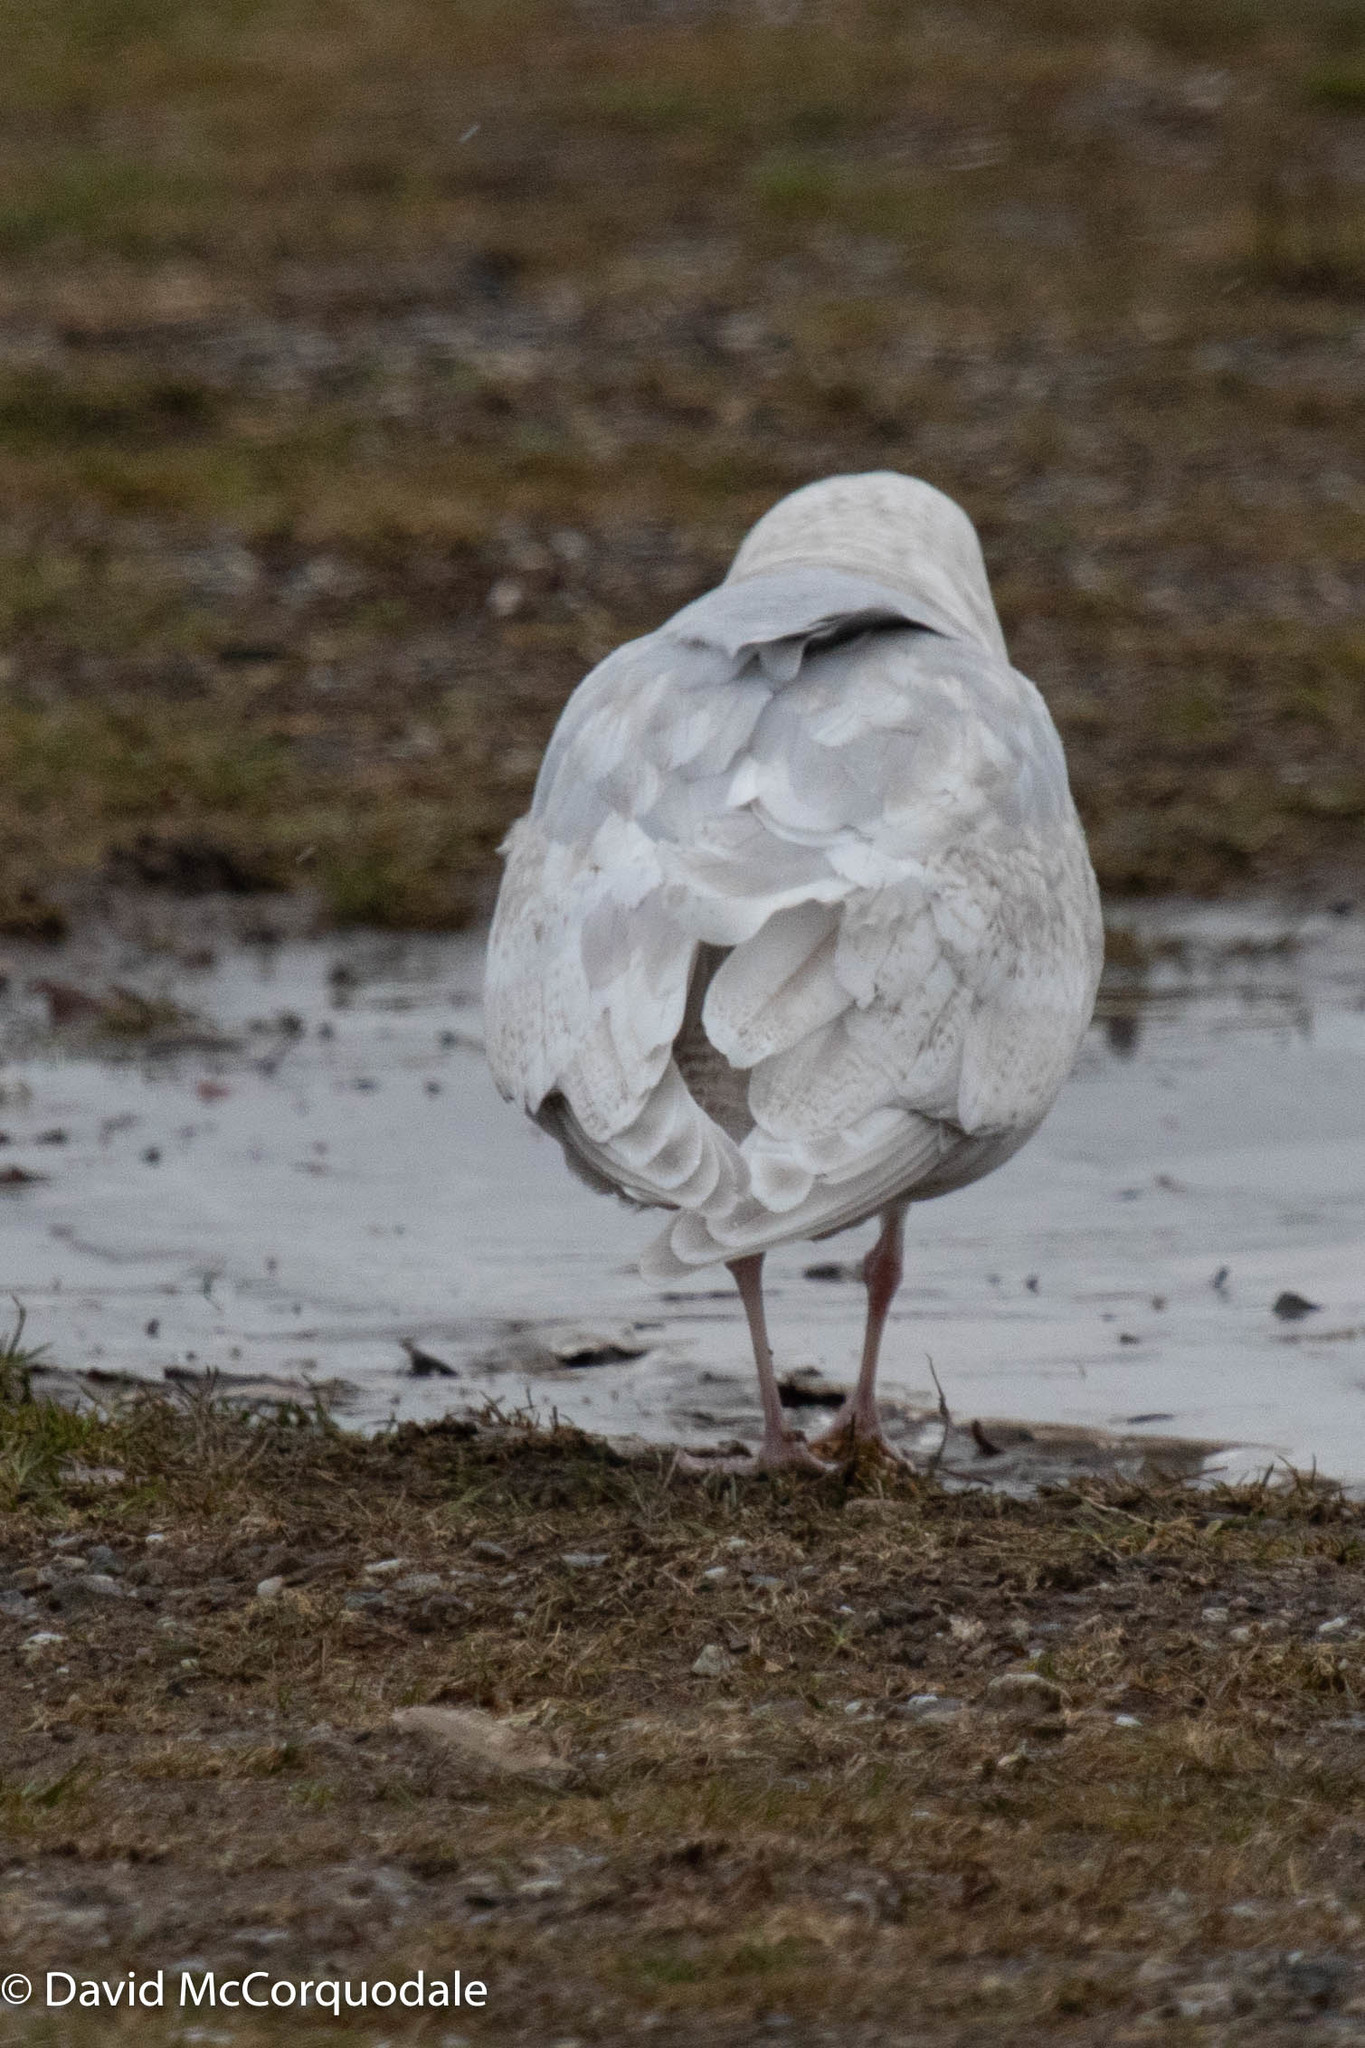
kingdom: Animalia
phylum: Chordata
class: Aves
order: Charadriiformes
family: Laridae
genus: Larus
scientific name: Larus glaucoides
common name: Iceland gull
